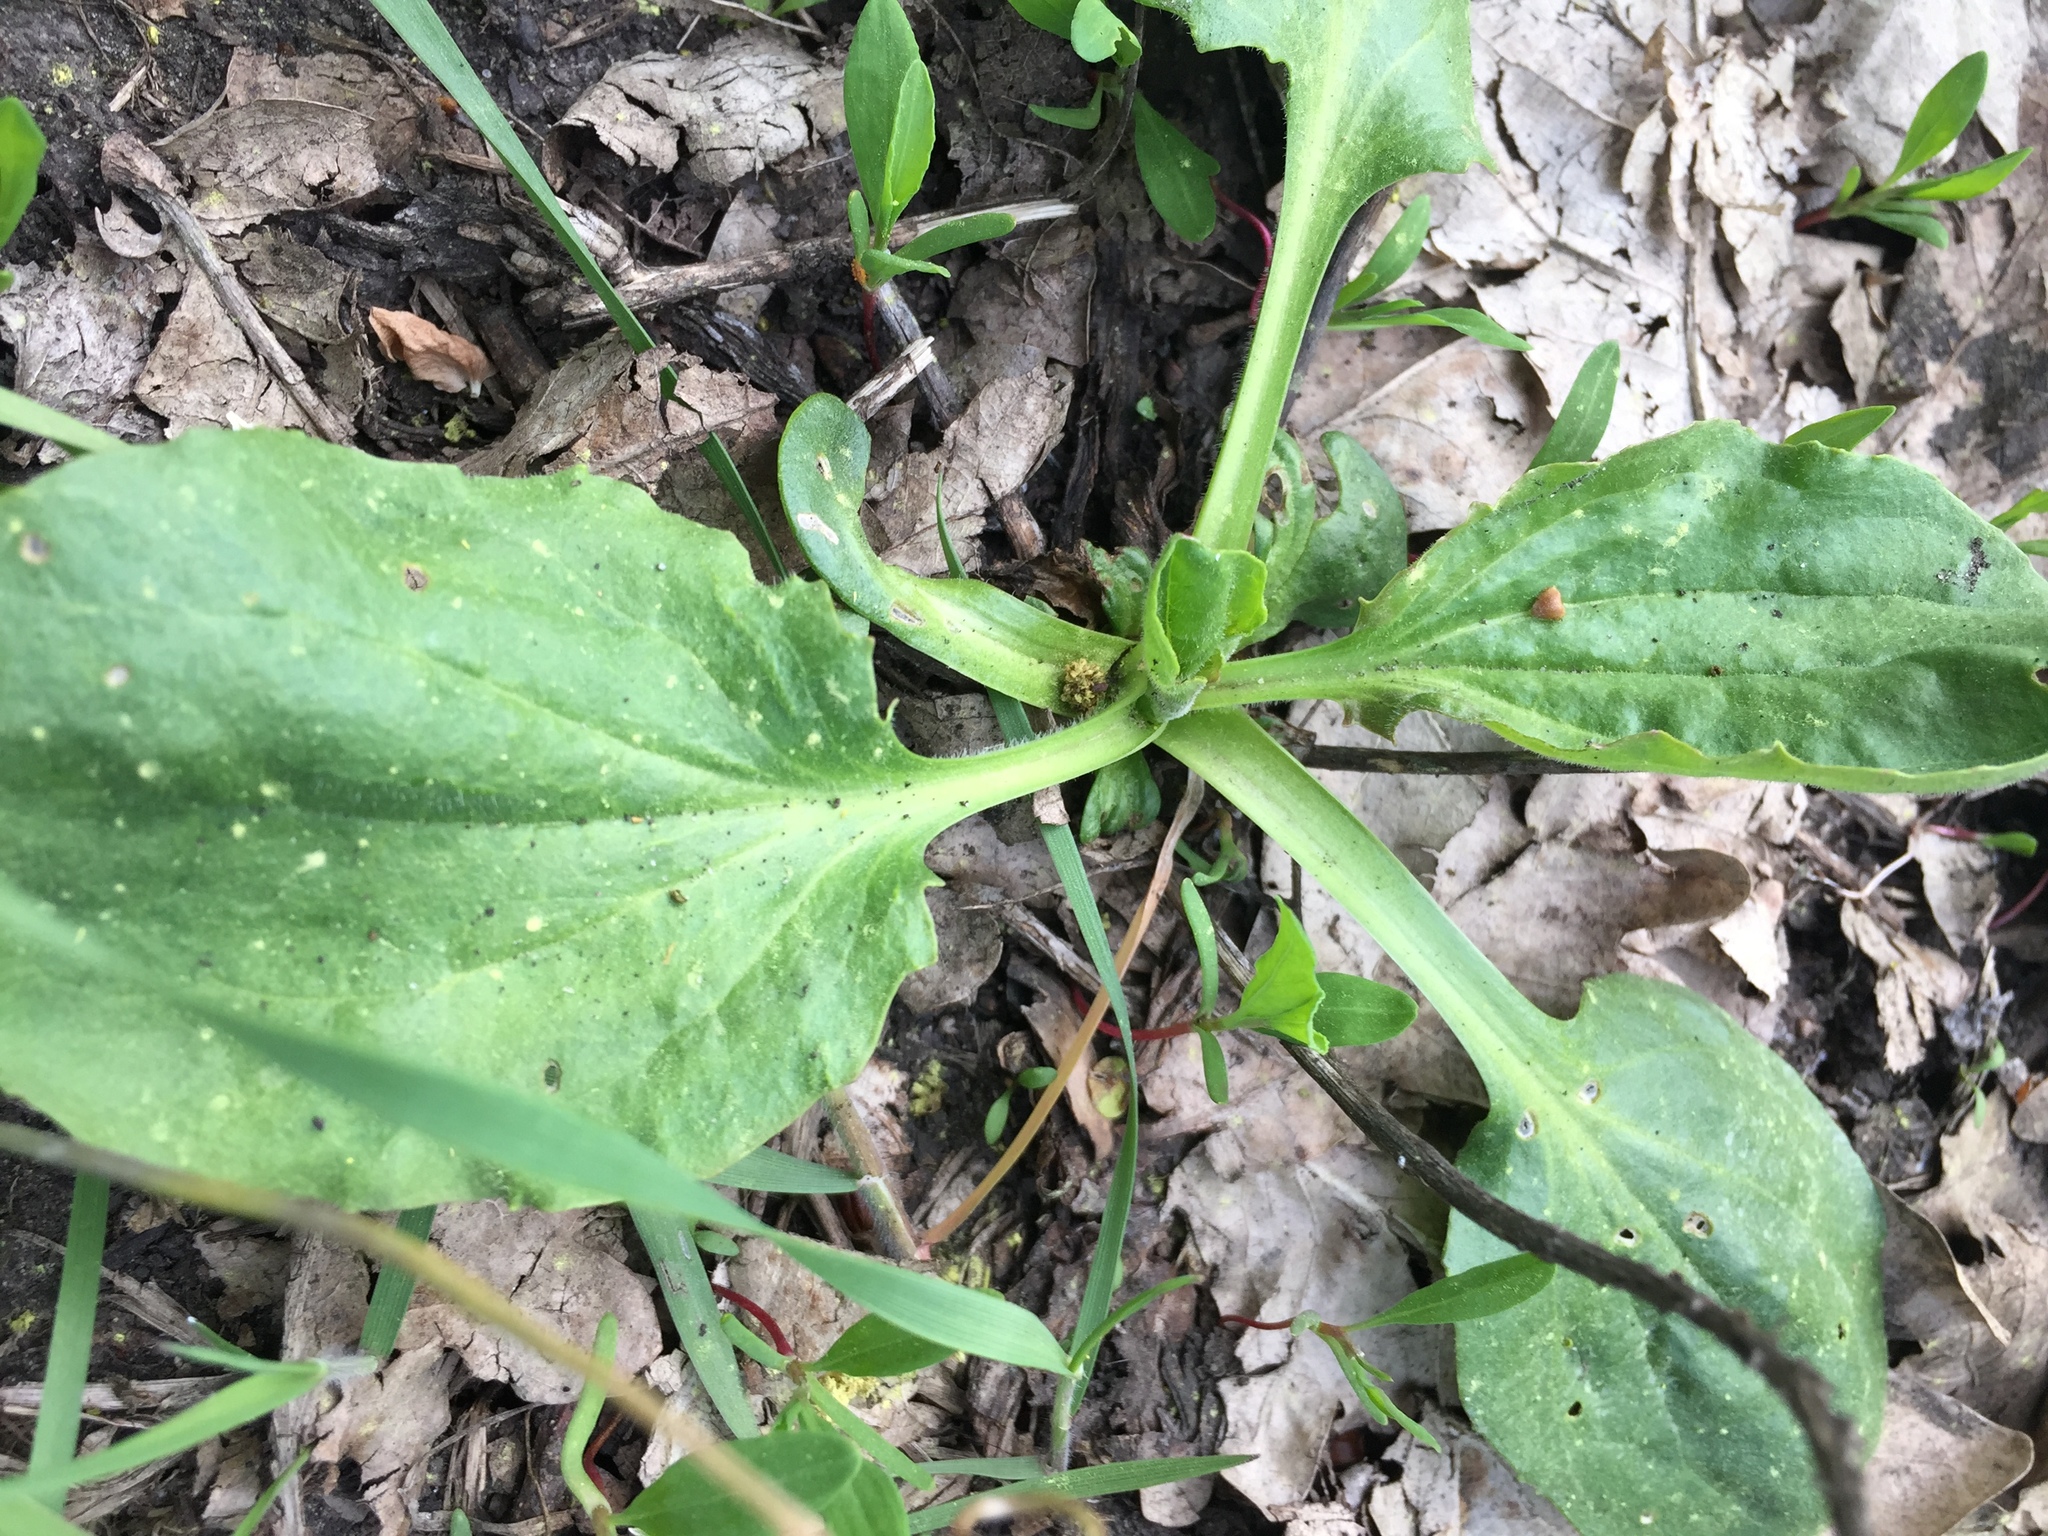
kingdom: Plantae
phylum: Tracheophyta
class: Magnoliopsida
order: Lamiales
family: Plantaginaceae
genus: Plantago
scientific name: Plantago major
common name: Common plantain
